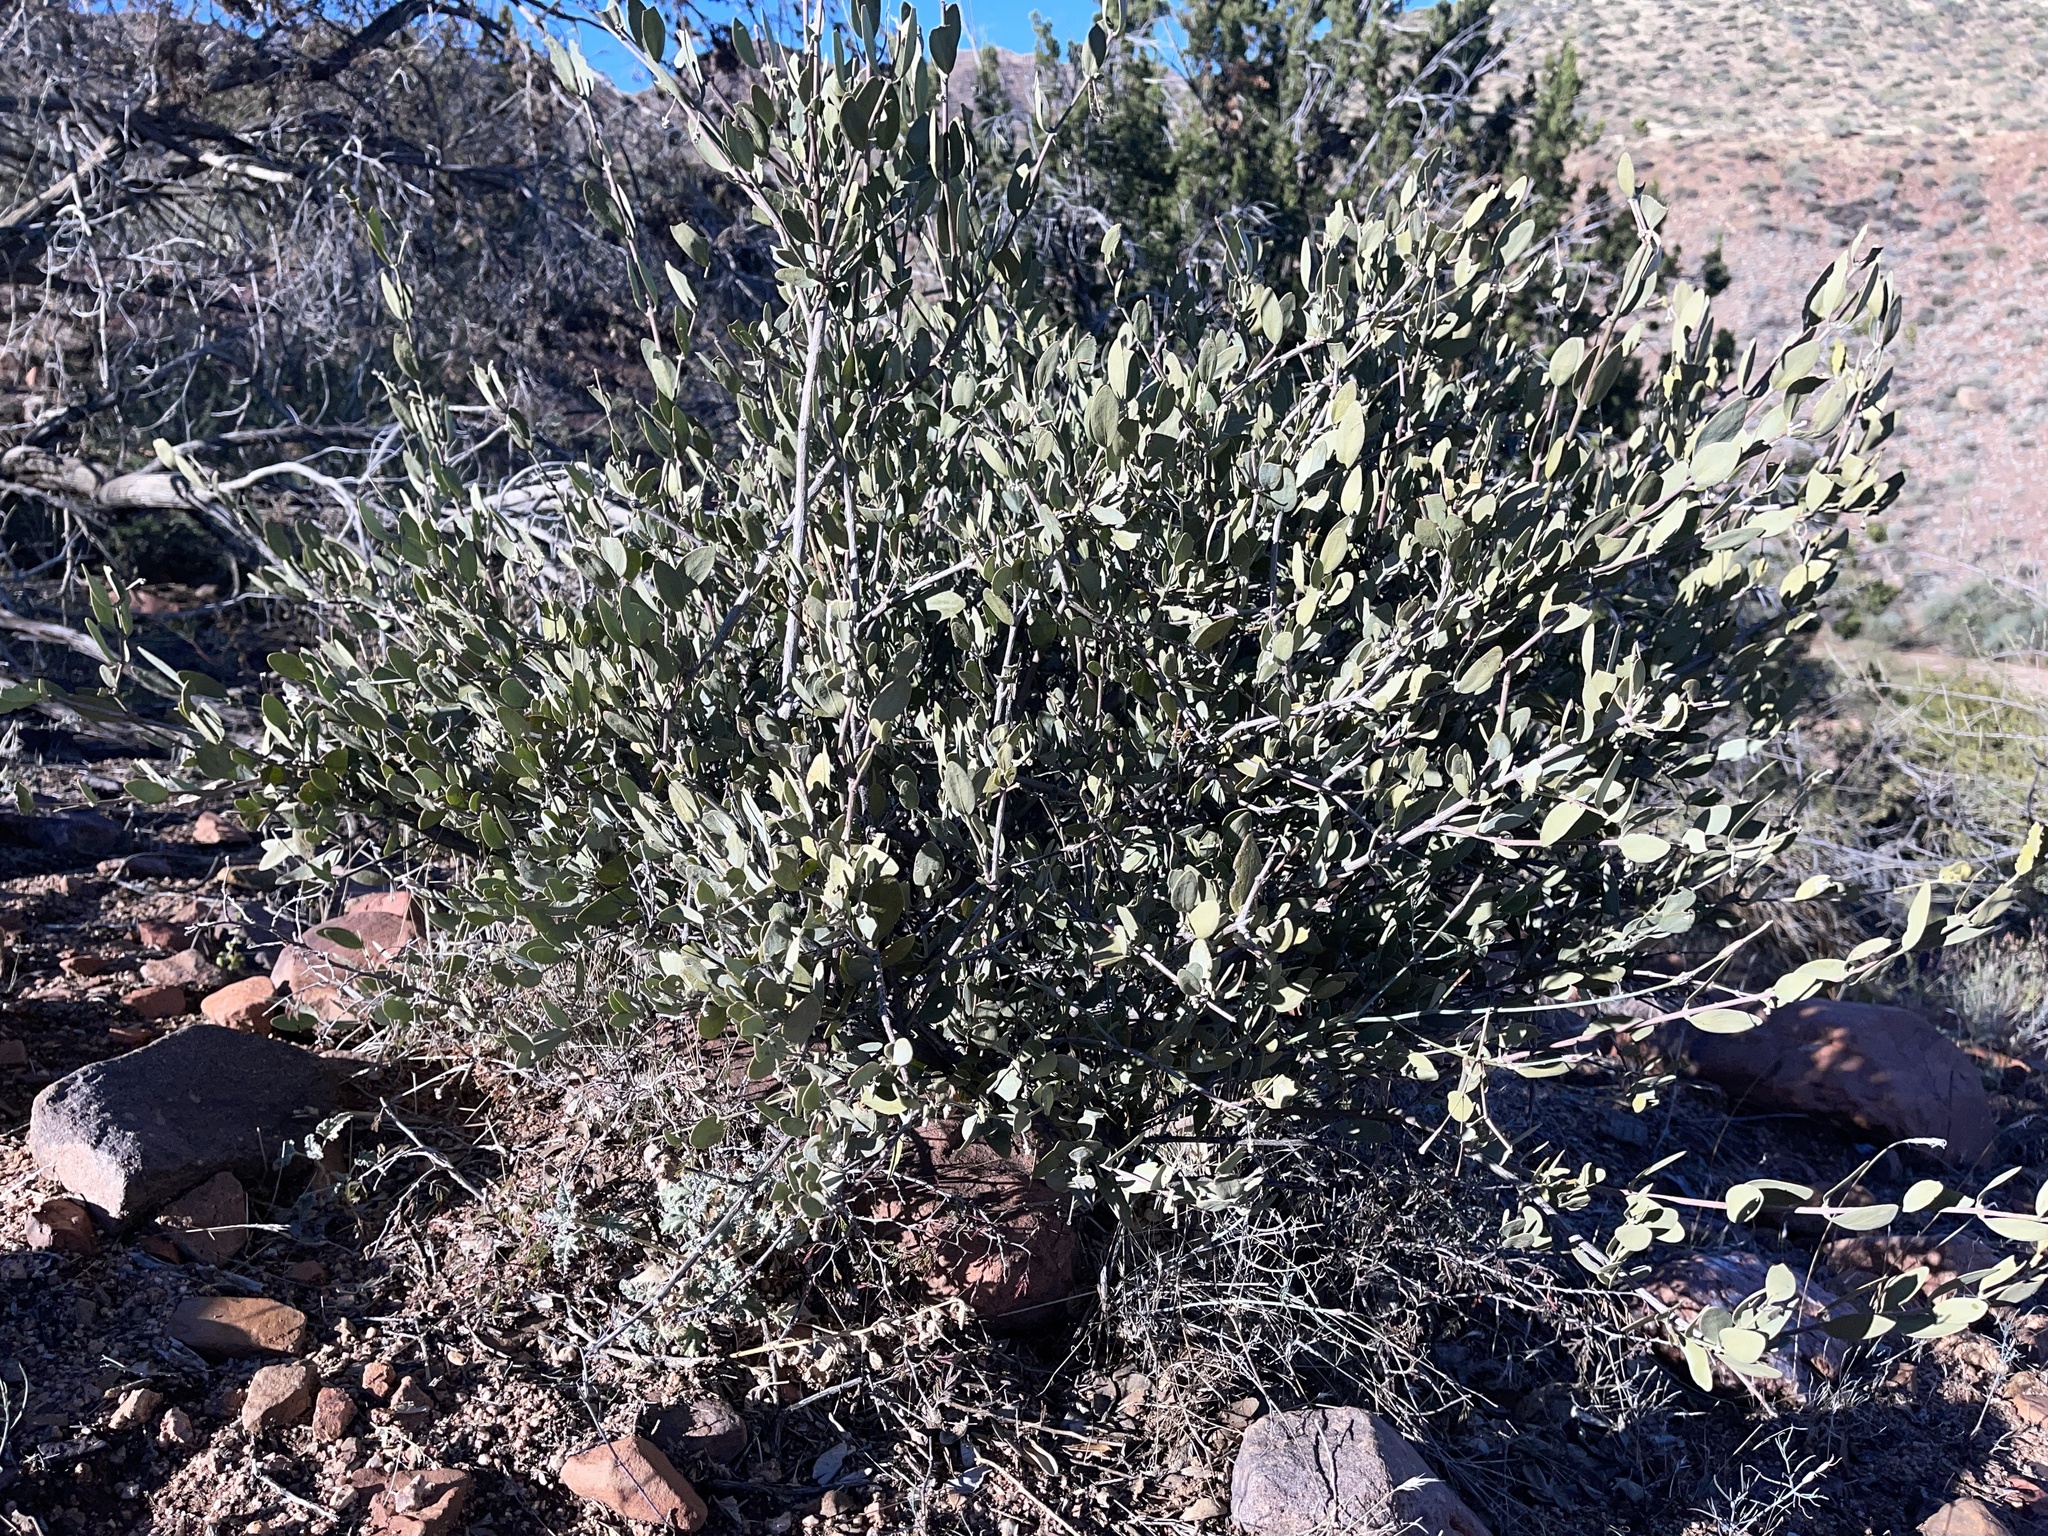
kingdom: Plantae
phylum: Tracheophyta
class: Magnoliopsida
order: Caryophyllales
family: Simmondsiaceae
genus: Simmondsia
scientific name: Simmondsia chinensis
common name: Jojoba
